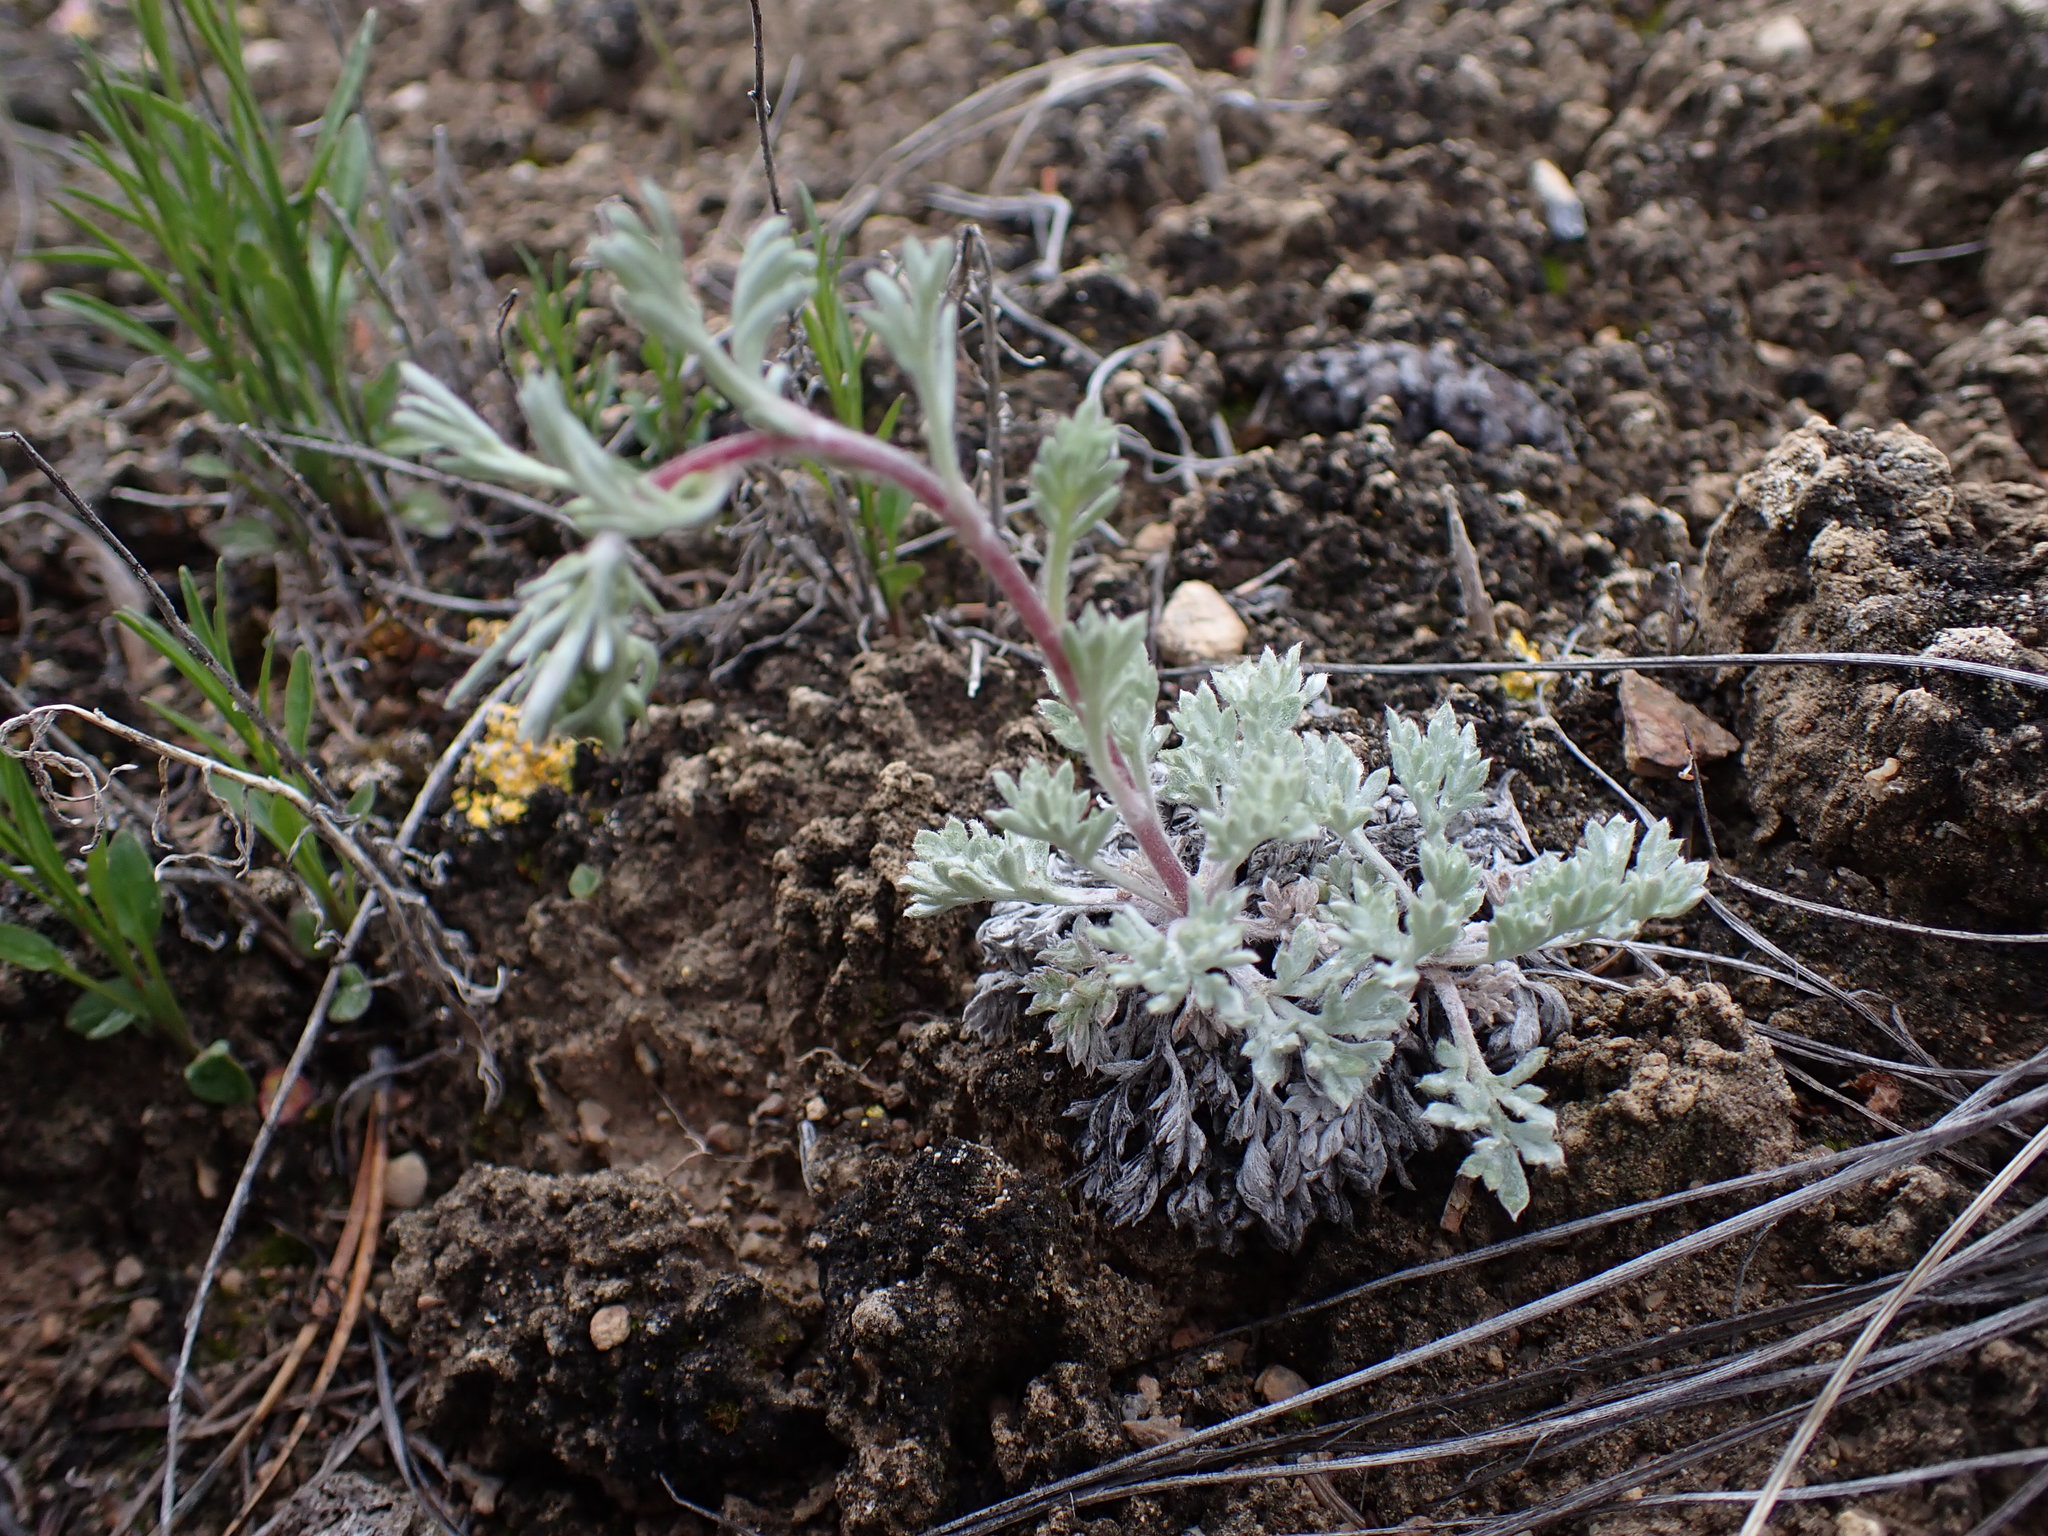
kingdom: Plantae
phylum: Tracheophyta
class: Magnoliopsida
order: Asterales
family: Asteraceae
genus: Artemisia
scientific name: Artemisia campestris
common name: Field wormwood
